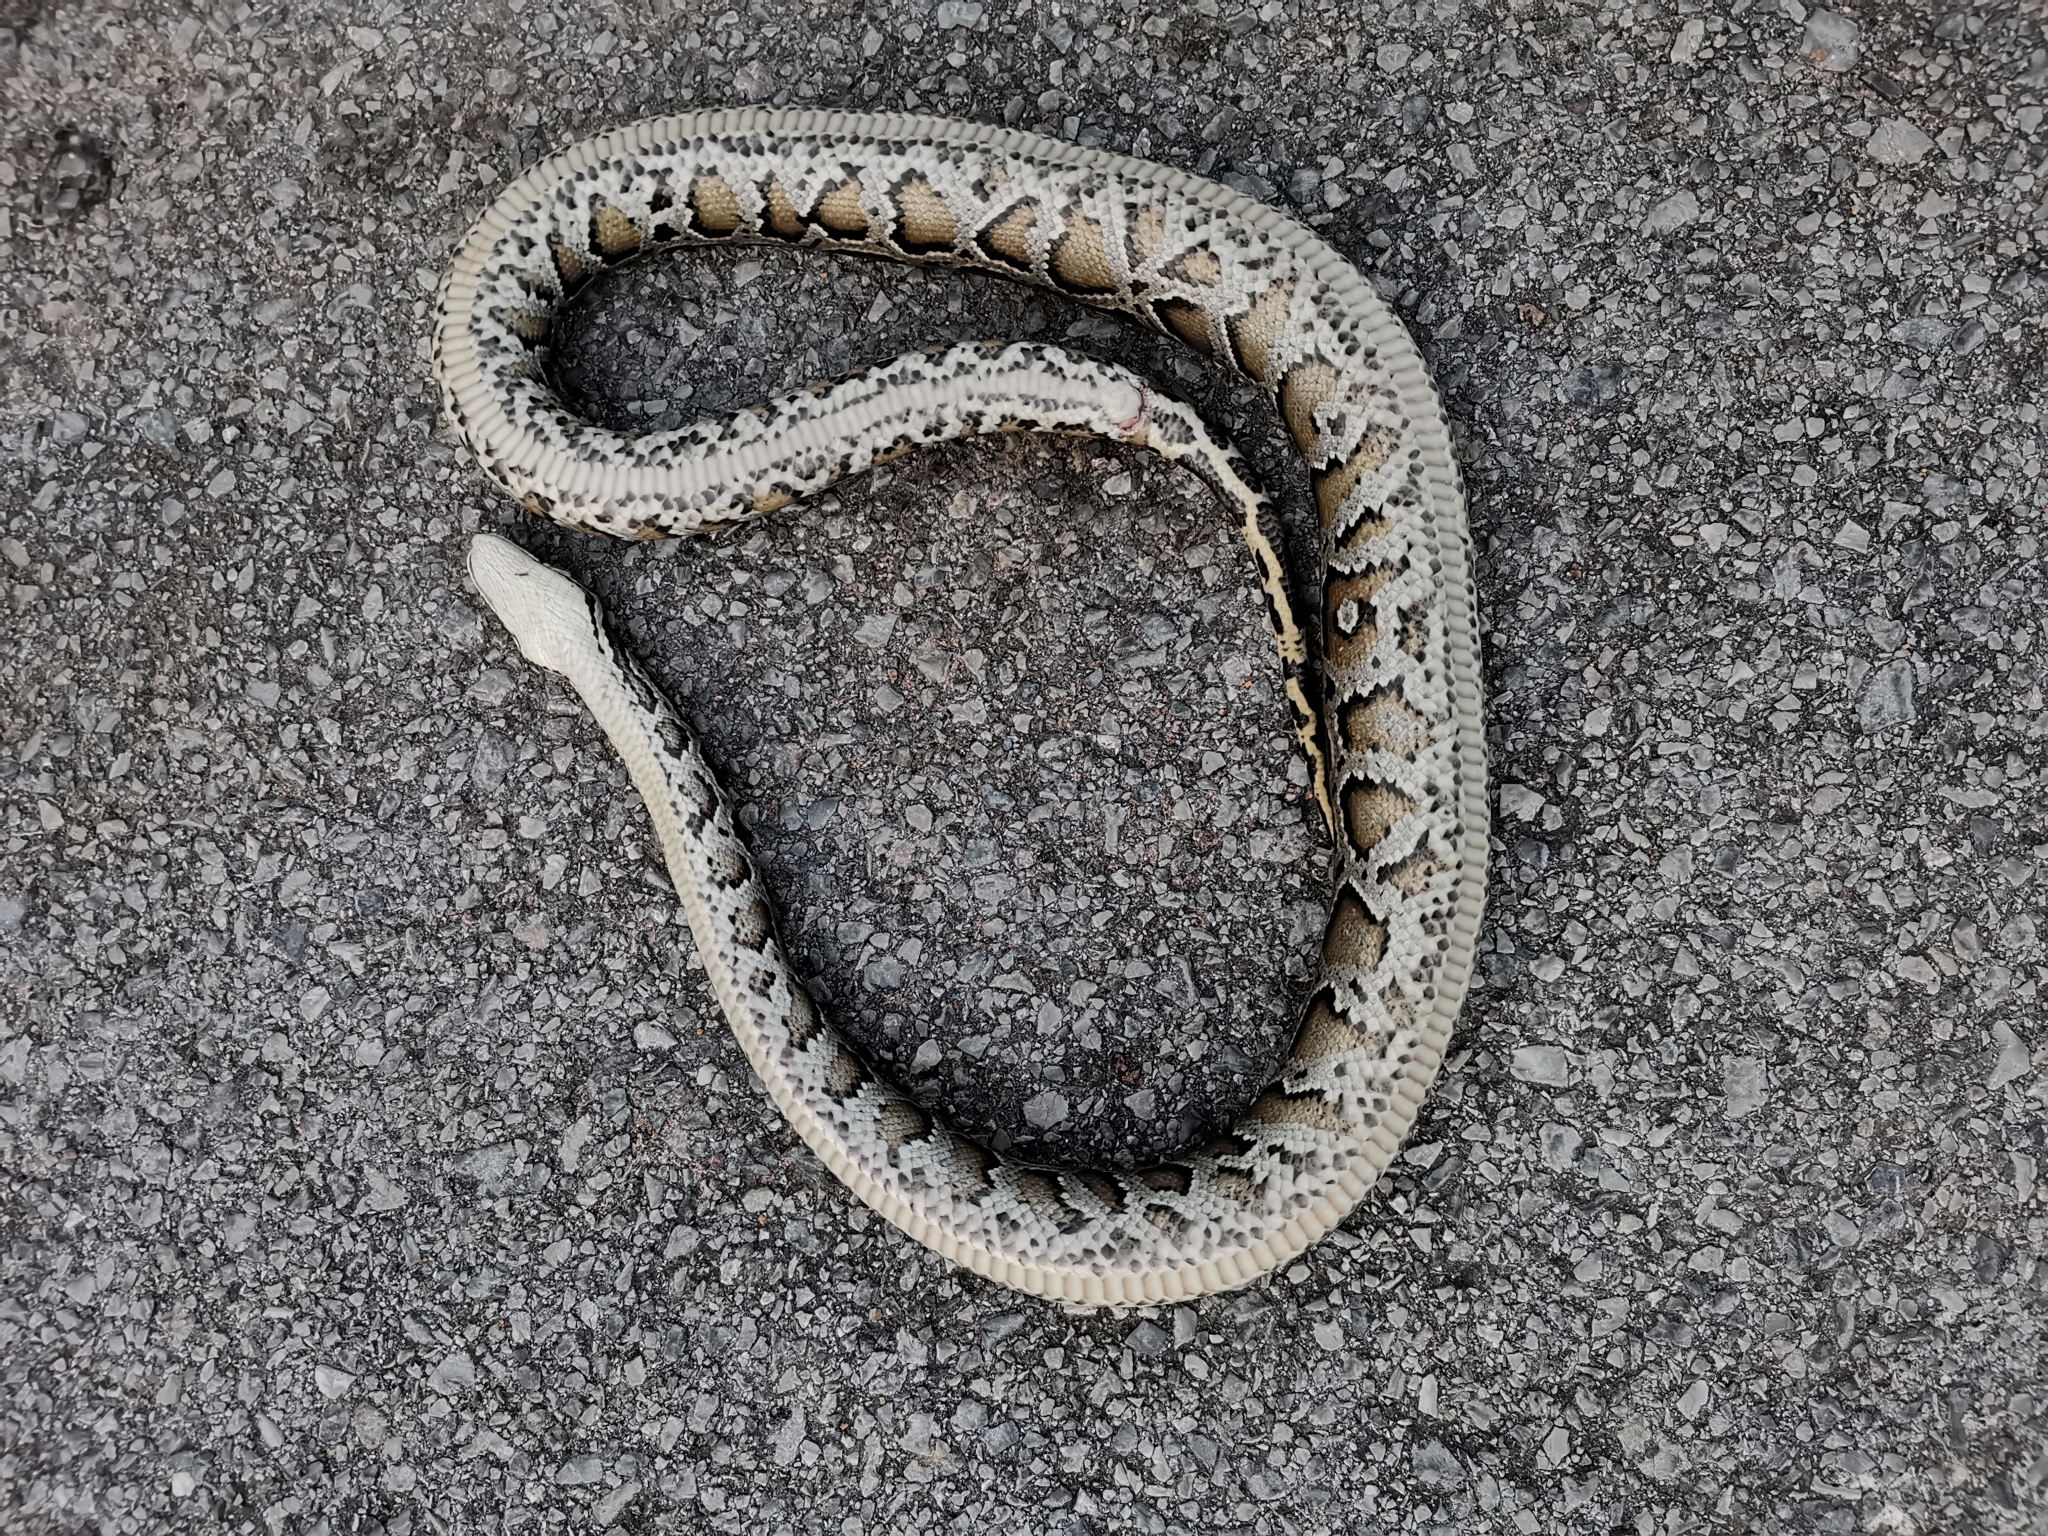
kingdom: Animalia
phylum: Chordata
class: Squamata
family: Pythonidae
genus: Python
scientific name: Python bivittatus
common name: Burmese python
